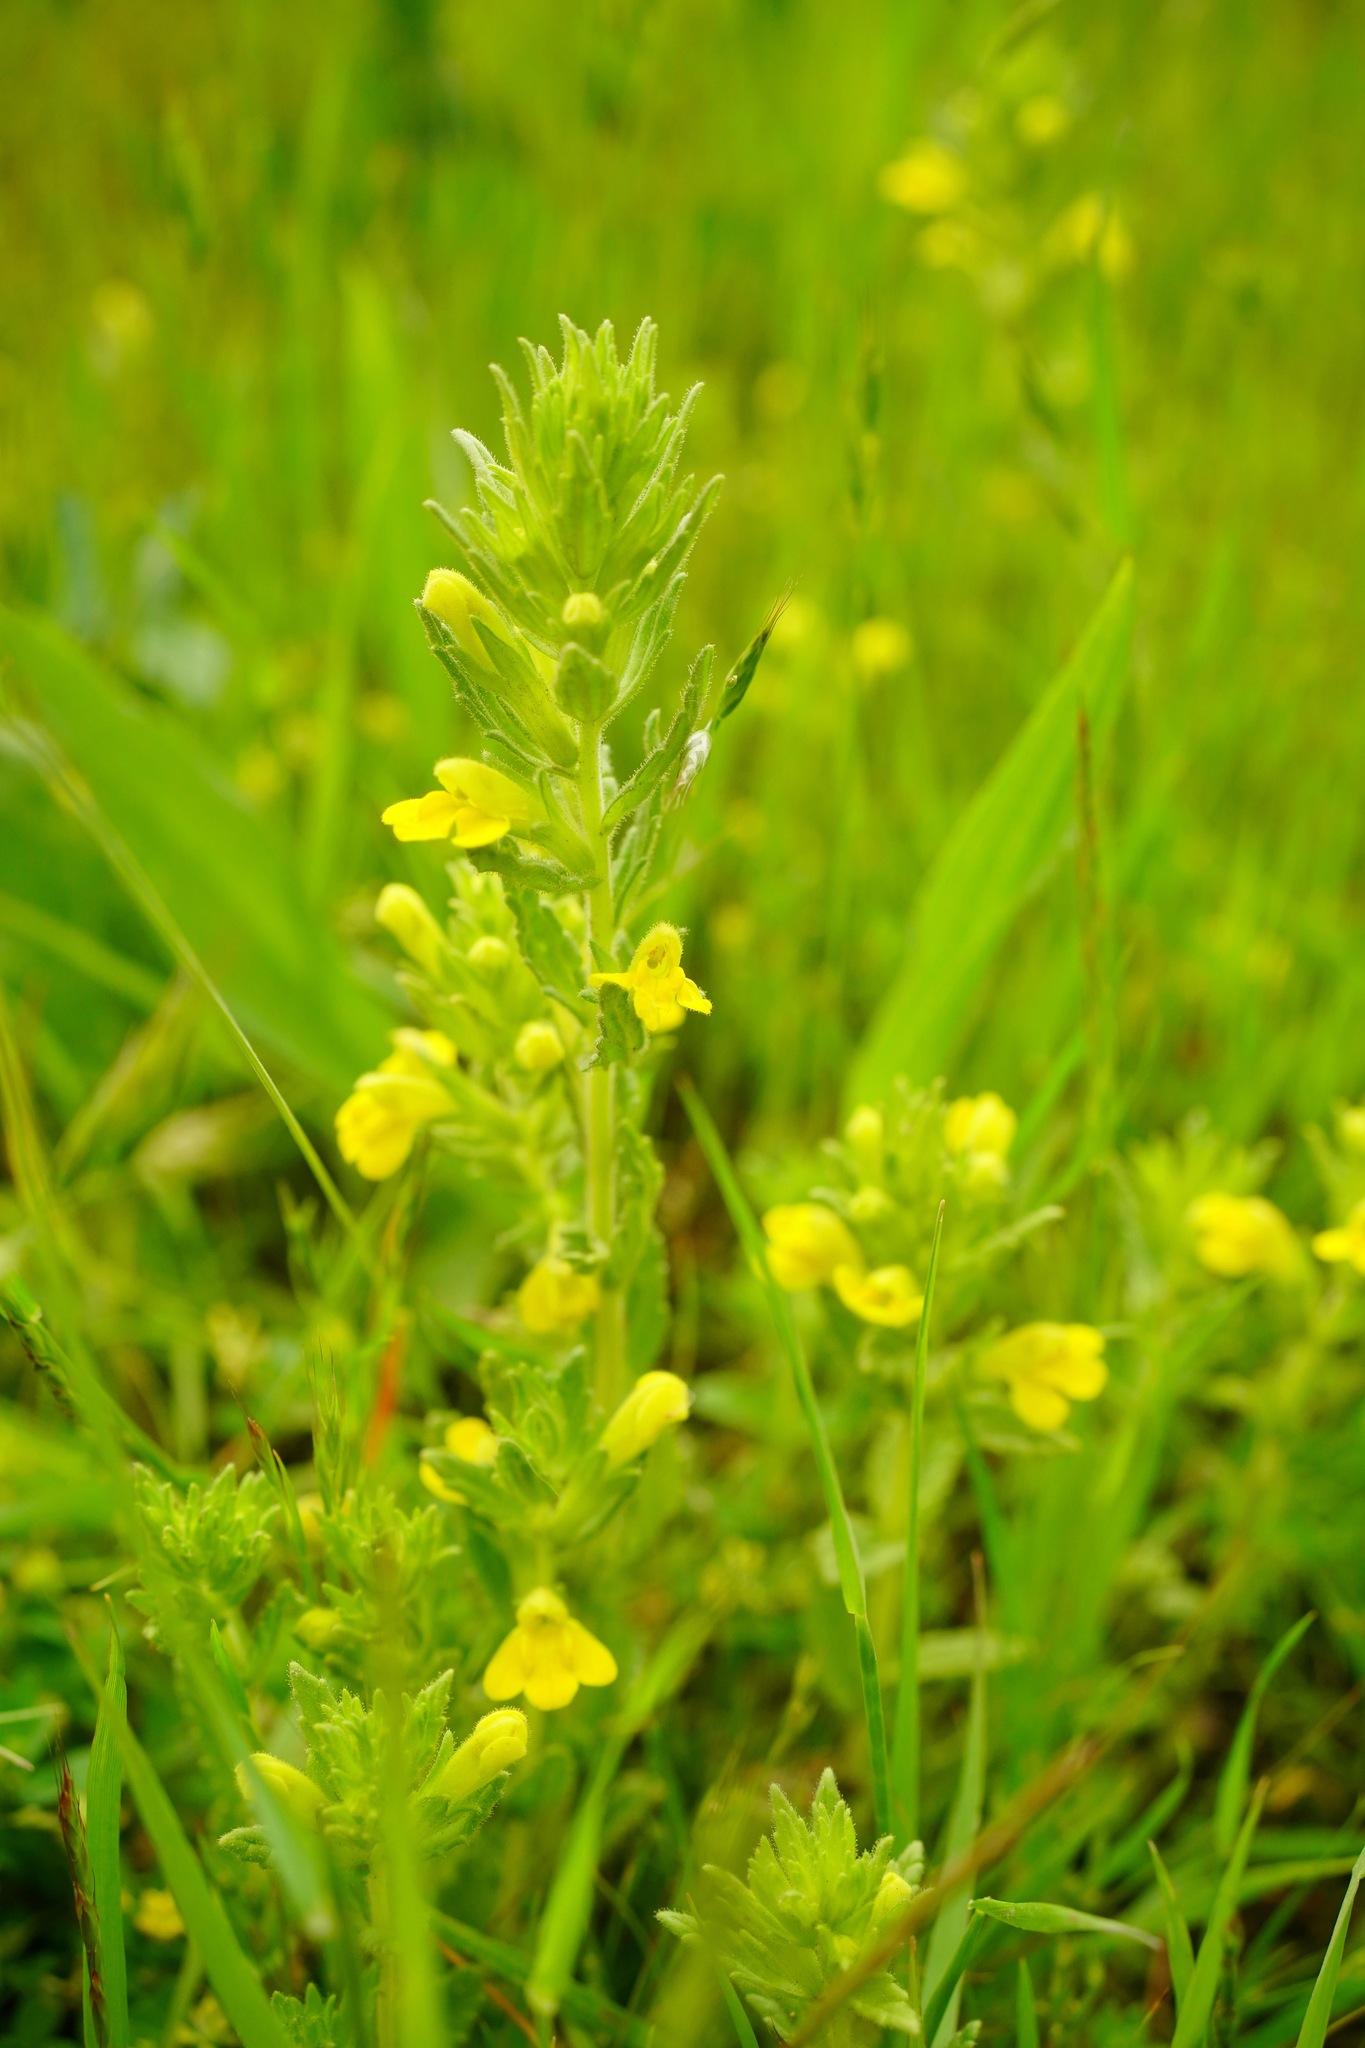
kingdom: Plantae
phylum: Tracheophyta
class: Magnoliopsida
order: Lamiales
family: Orobanchaceae
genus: Bellardia
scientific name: Bellardia viscosa
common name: Sticky parentucellia
